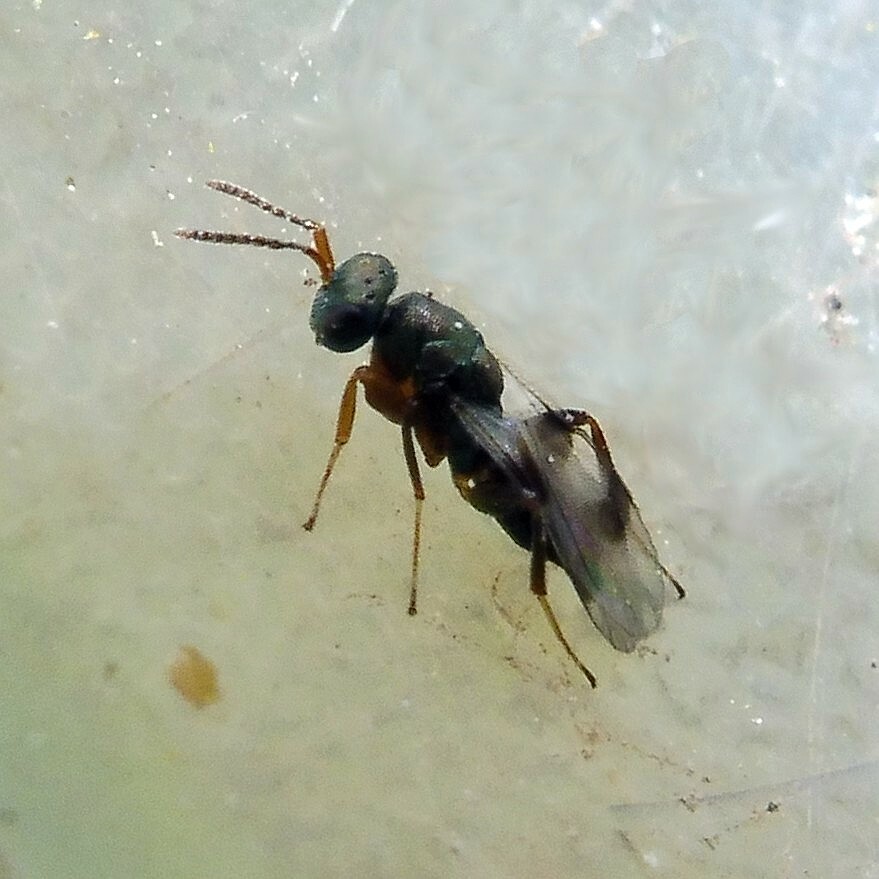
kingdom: Animalia
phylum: Arthropoda
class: Insecta
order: Hymenoptera
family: Pteromalidae
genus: Cheiropachus
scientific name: Cheiropachus quadrum
